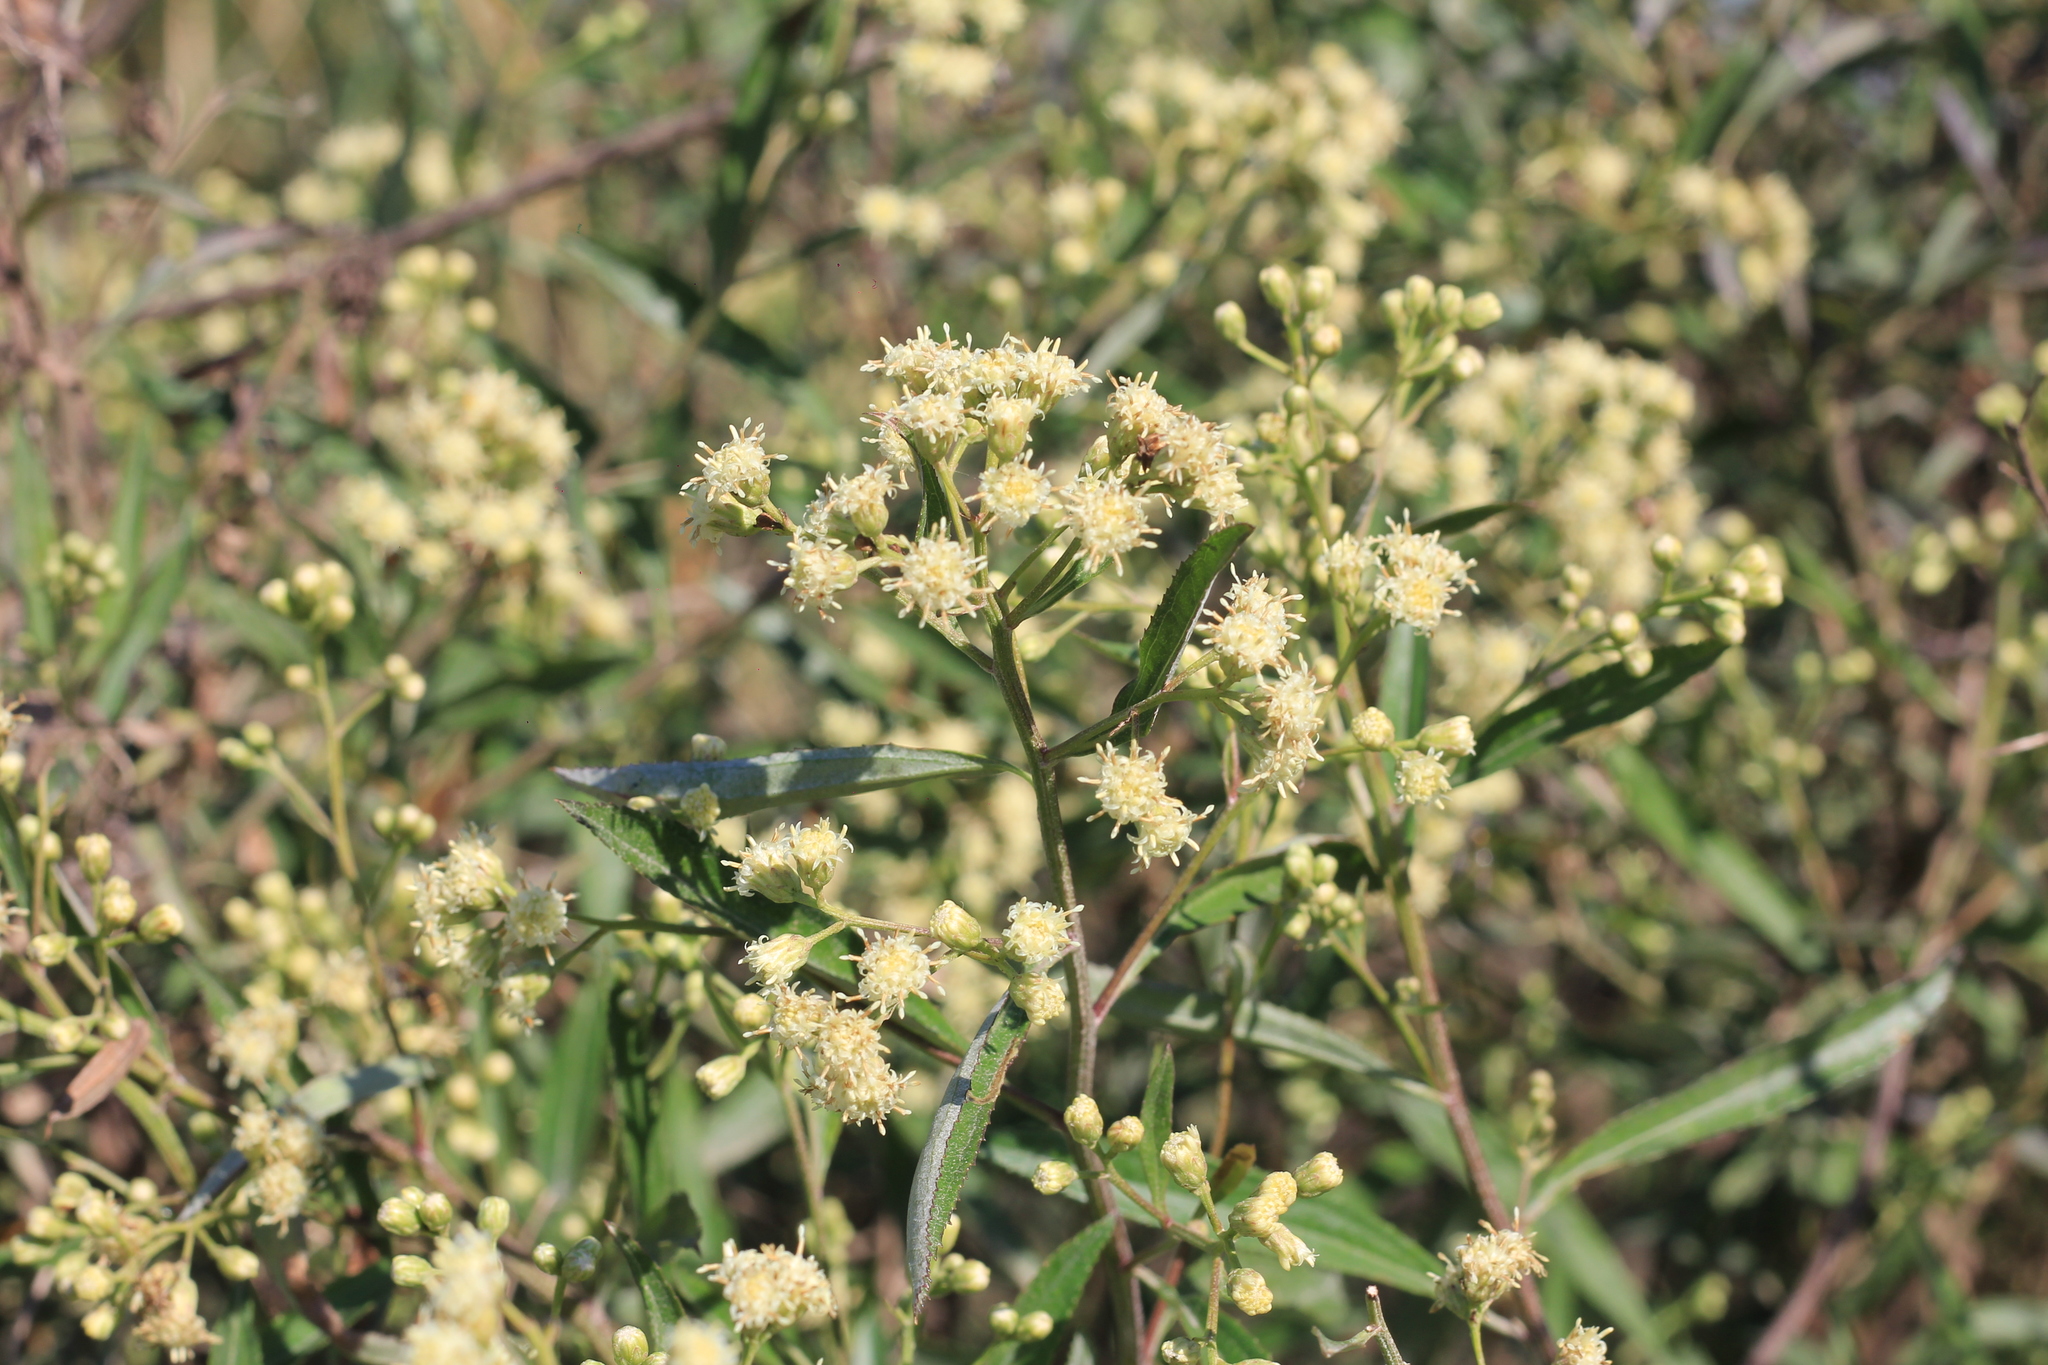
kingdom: Plantae
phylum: Tracheophyta
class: Magnoliopsida
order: Asterales
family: Asteraceae
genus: Baccharis
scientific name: Baccharis punctulata
